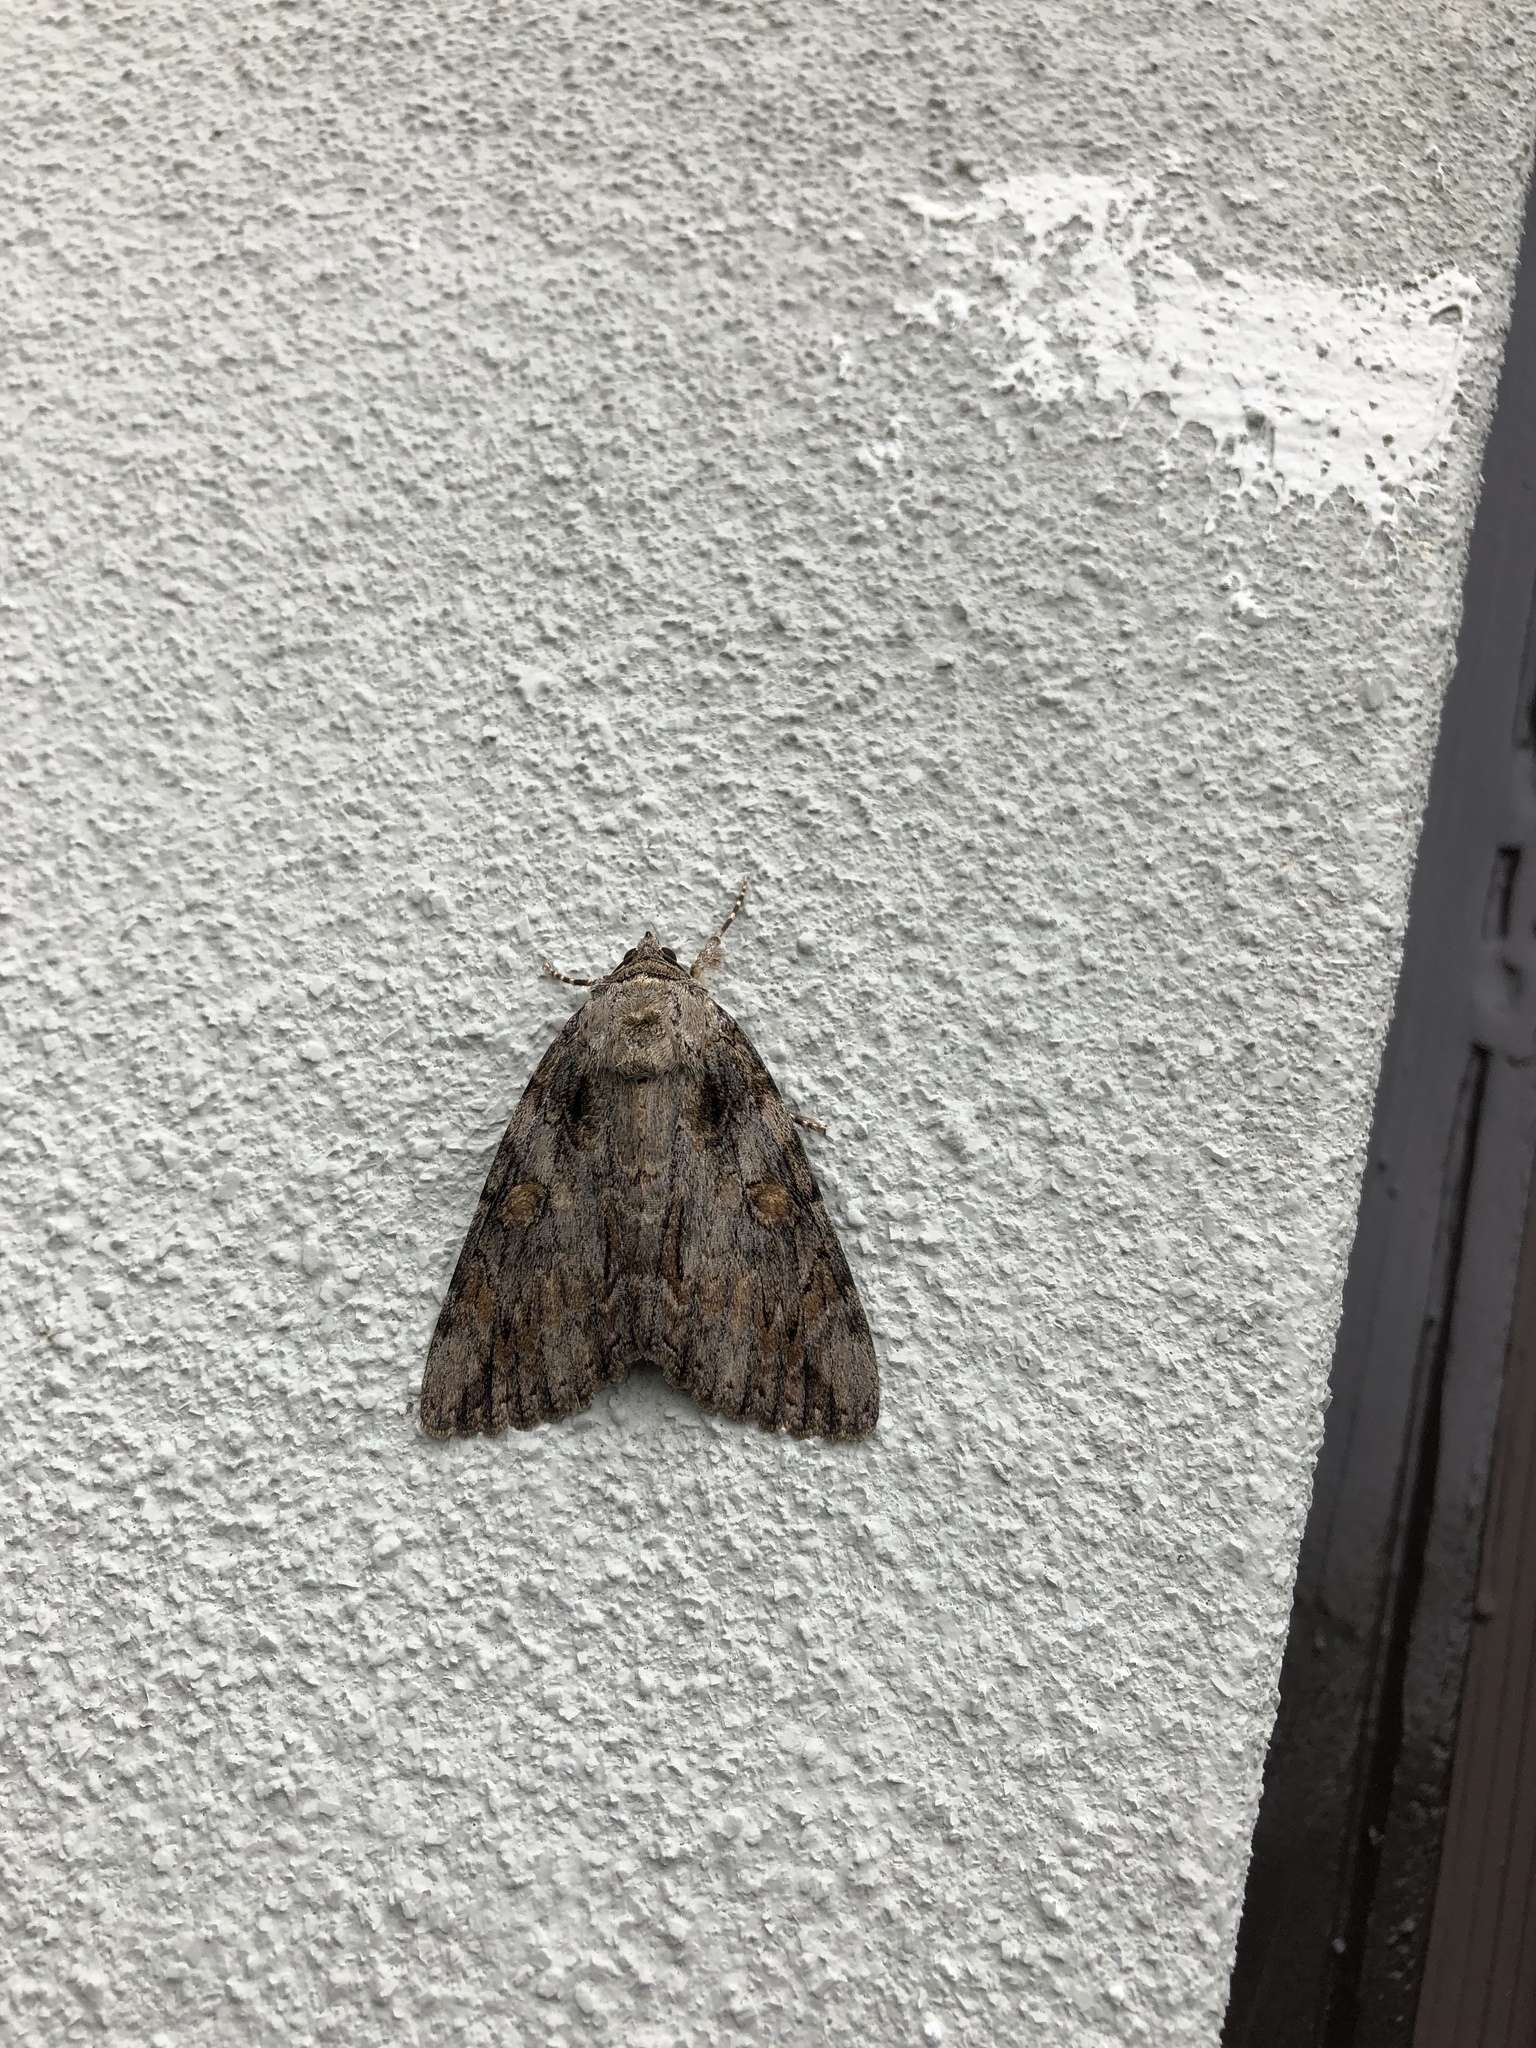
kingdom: Animalia
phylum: Arthropoda
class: Insecta
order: Lepidoptera
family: Erebidae
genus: Catocala
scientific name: Catocala neogama
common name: Bride underwing
